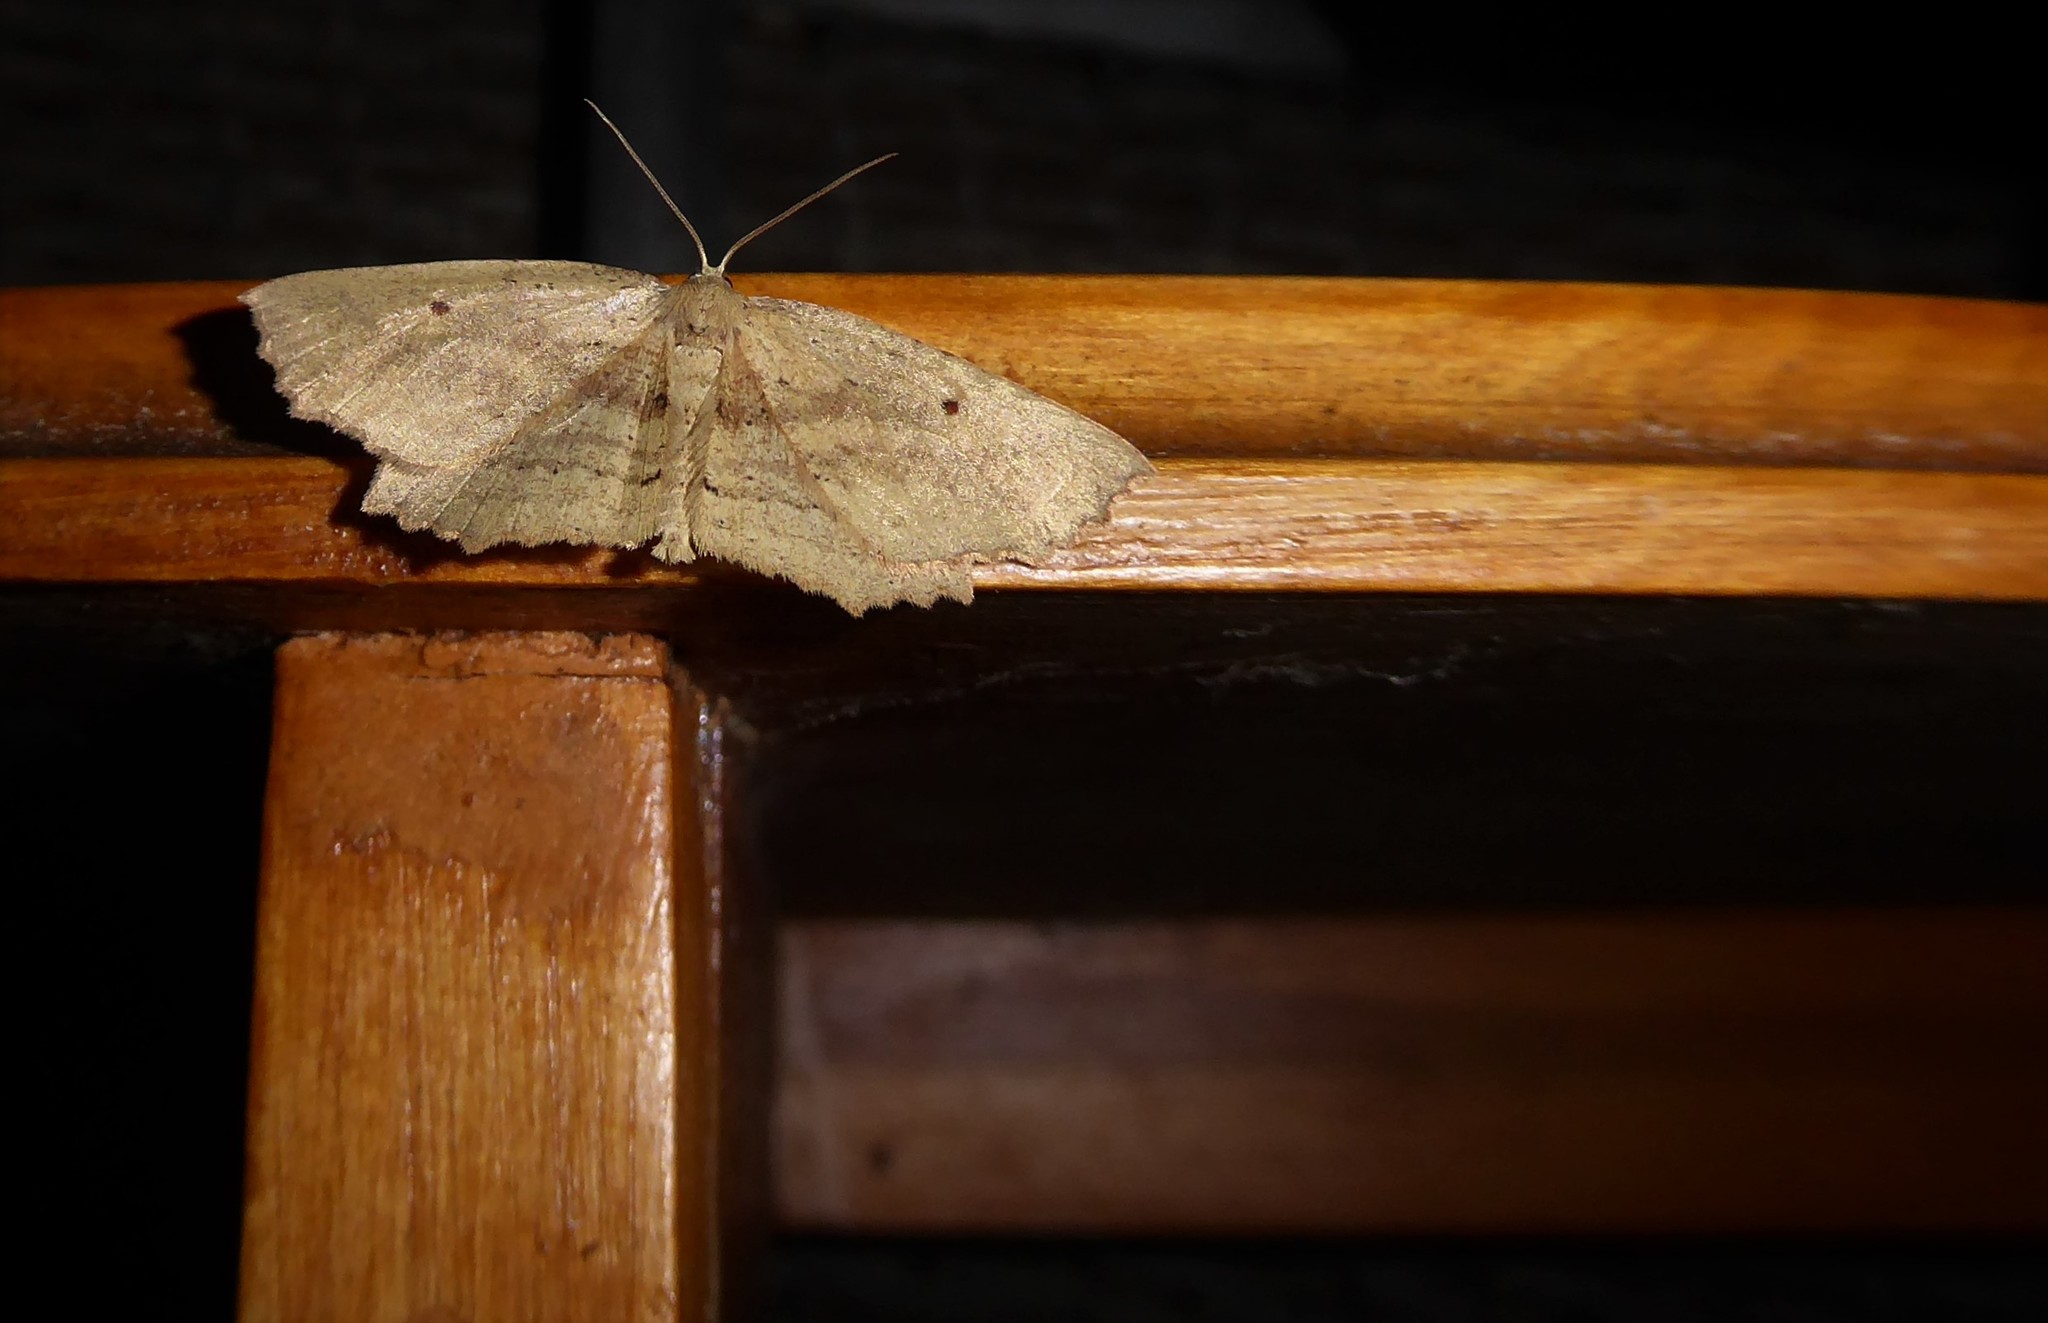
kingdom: Animalia
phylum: Arthropoda
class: Insecta
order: Lepidoptera
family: Geometridae
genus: Xyridacma
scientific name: Xyridacma veronicae
